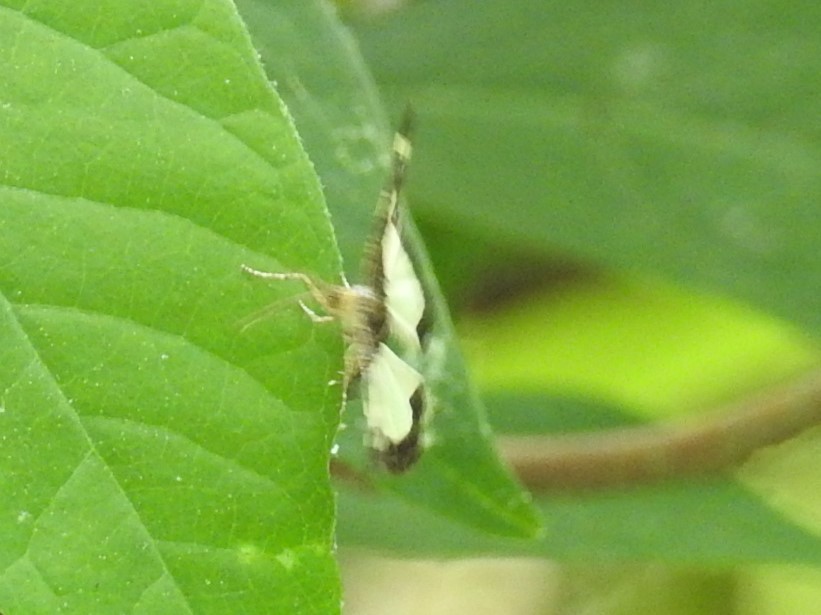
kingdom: Animalia
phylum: Arthropoda
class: Insecta
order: Lepidoptera
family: Geometridae
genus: Heliomata
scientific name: Heliomata cycladata
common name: Common spring moth
